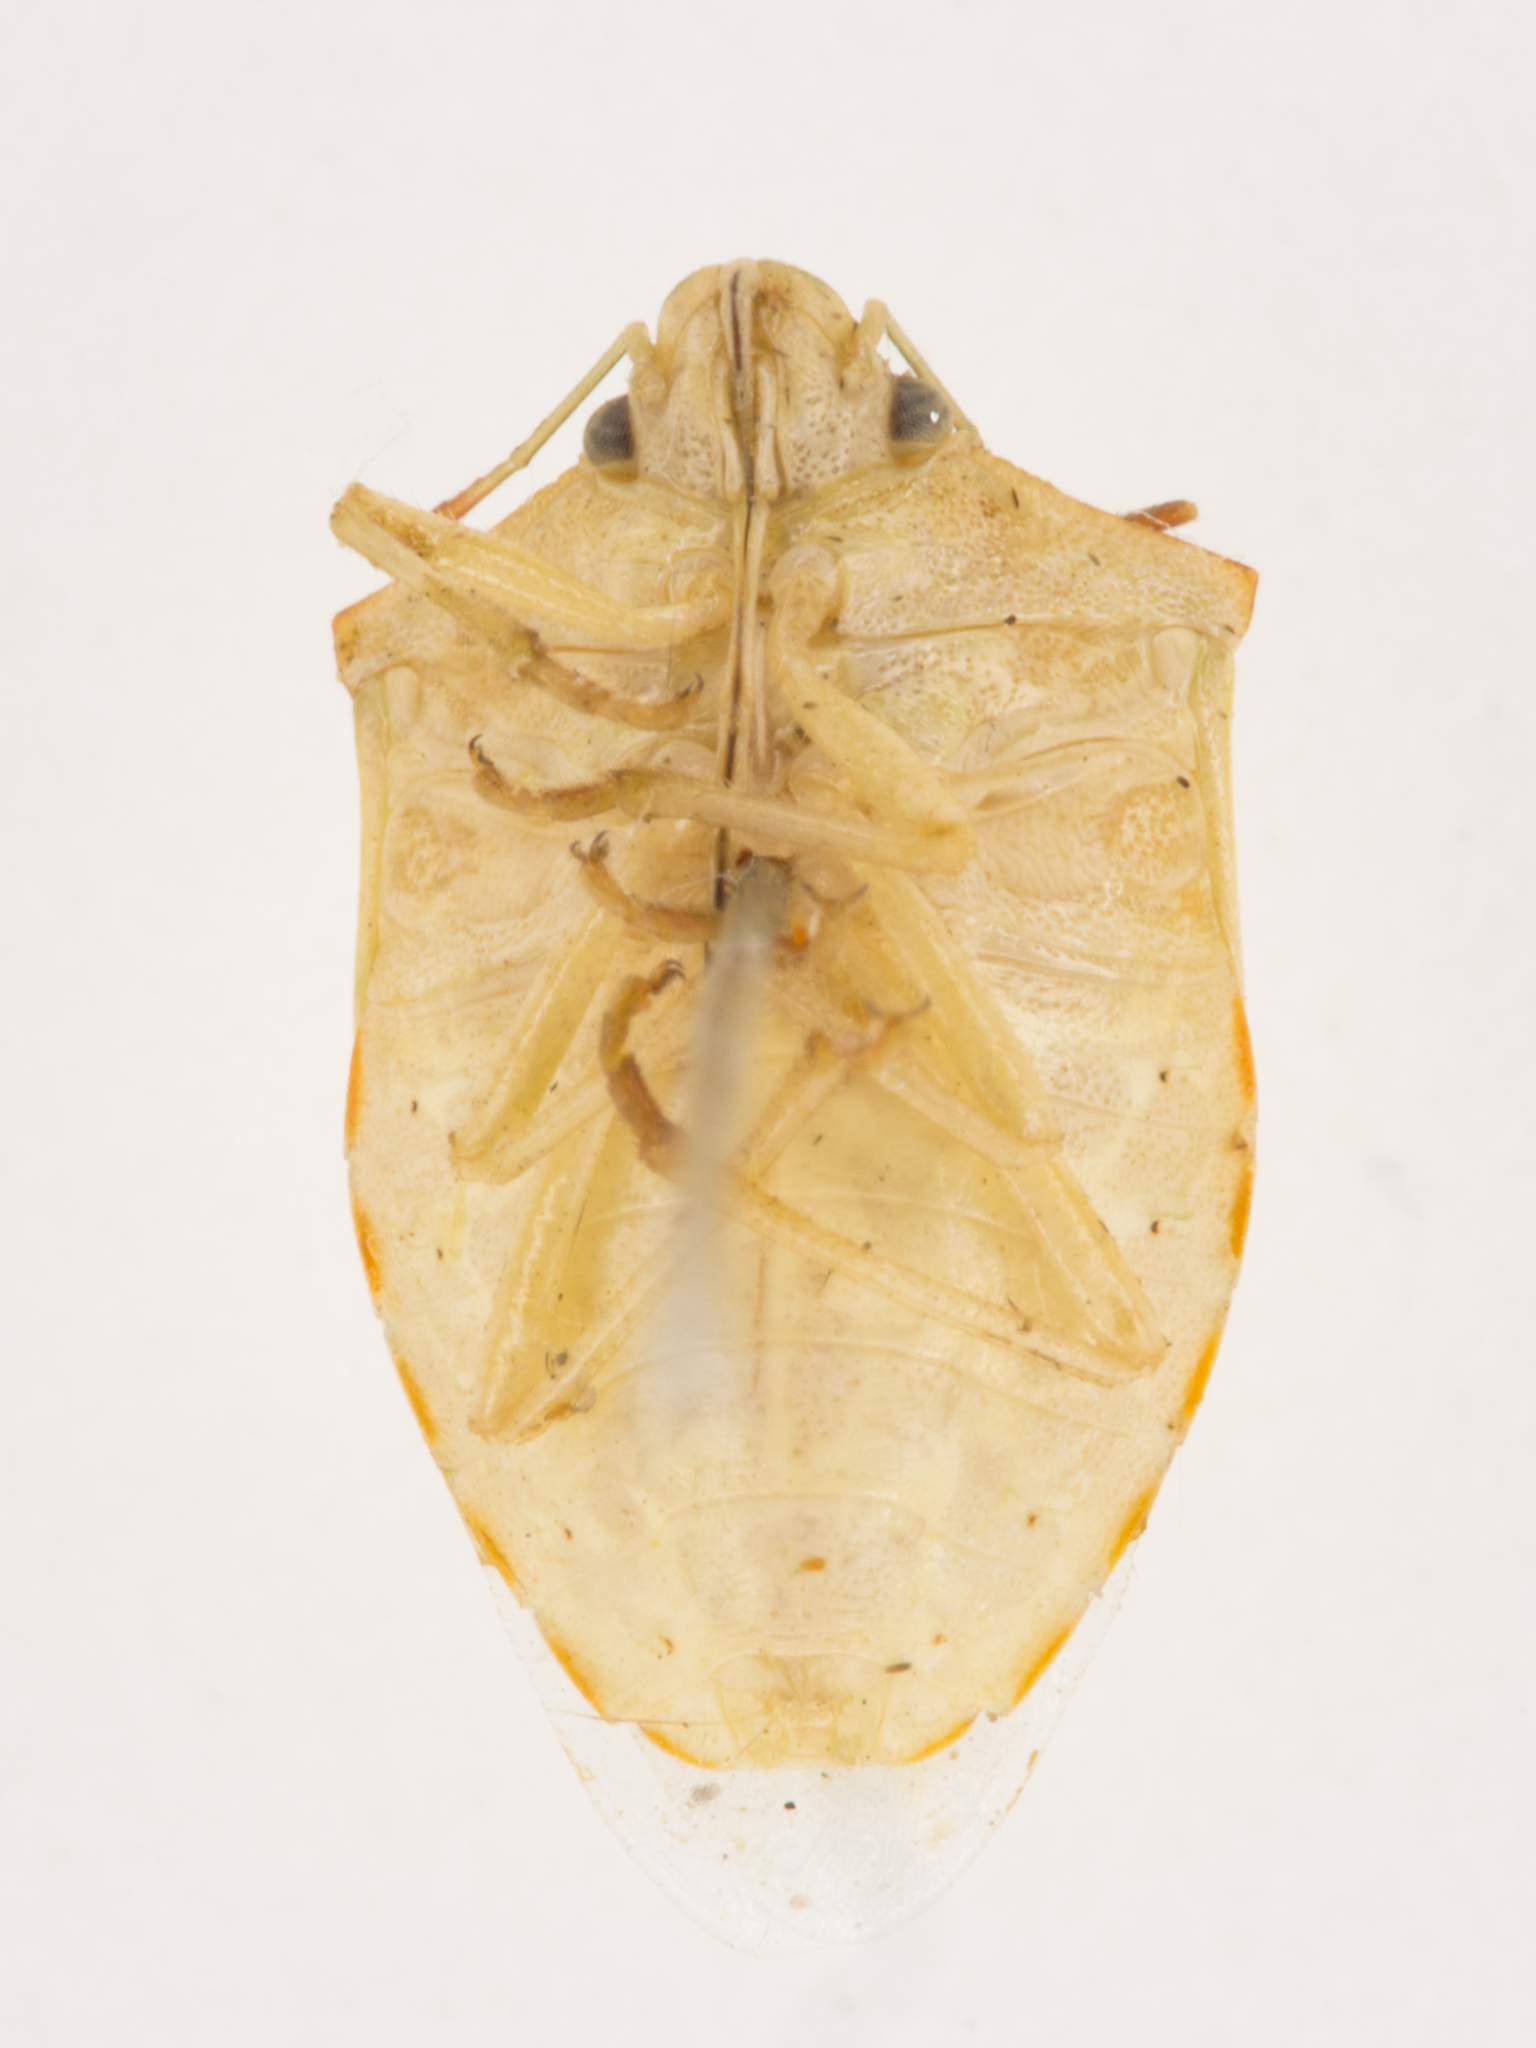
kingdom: Animalia
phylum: Arthropoda
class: Insecta
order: Hemiptera
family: Pentatomidae
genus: Thyanta
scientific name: Thyanta accerra
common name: Stink bug
